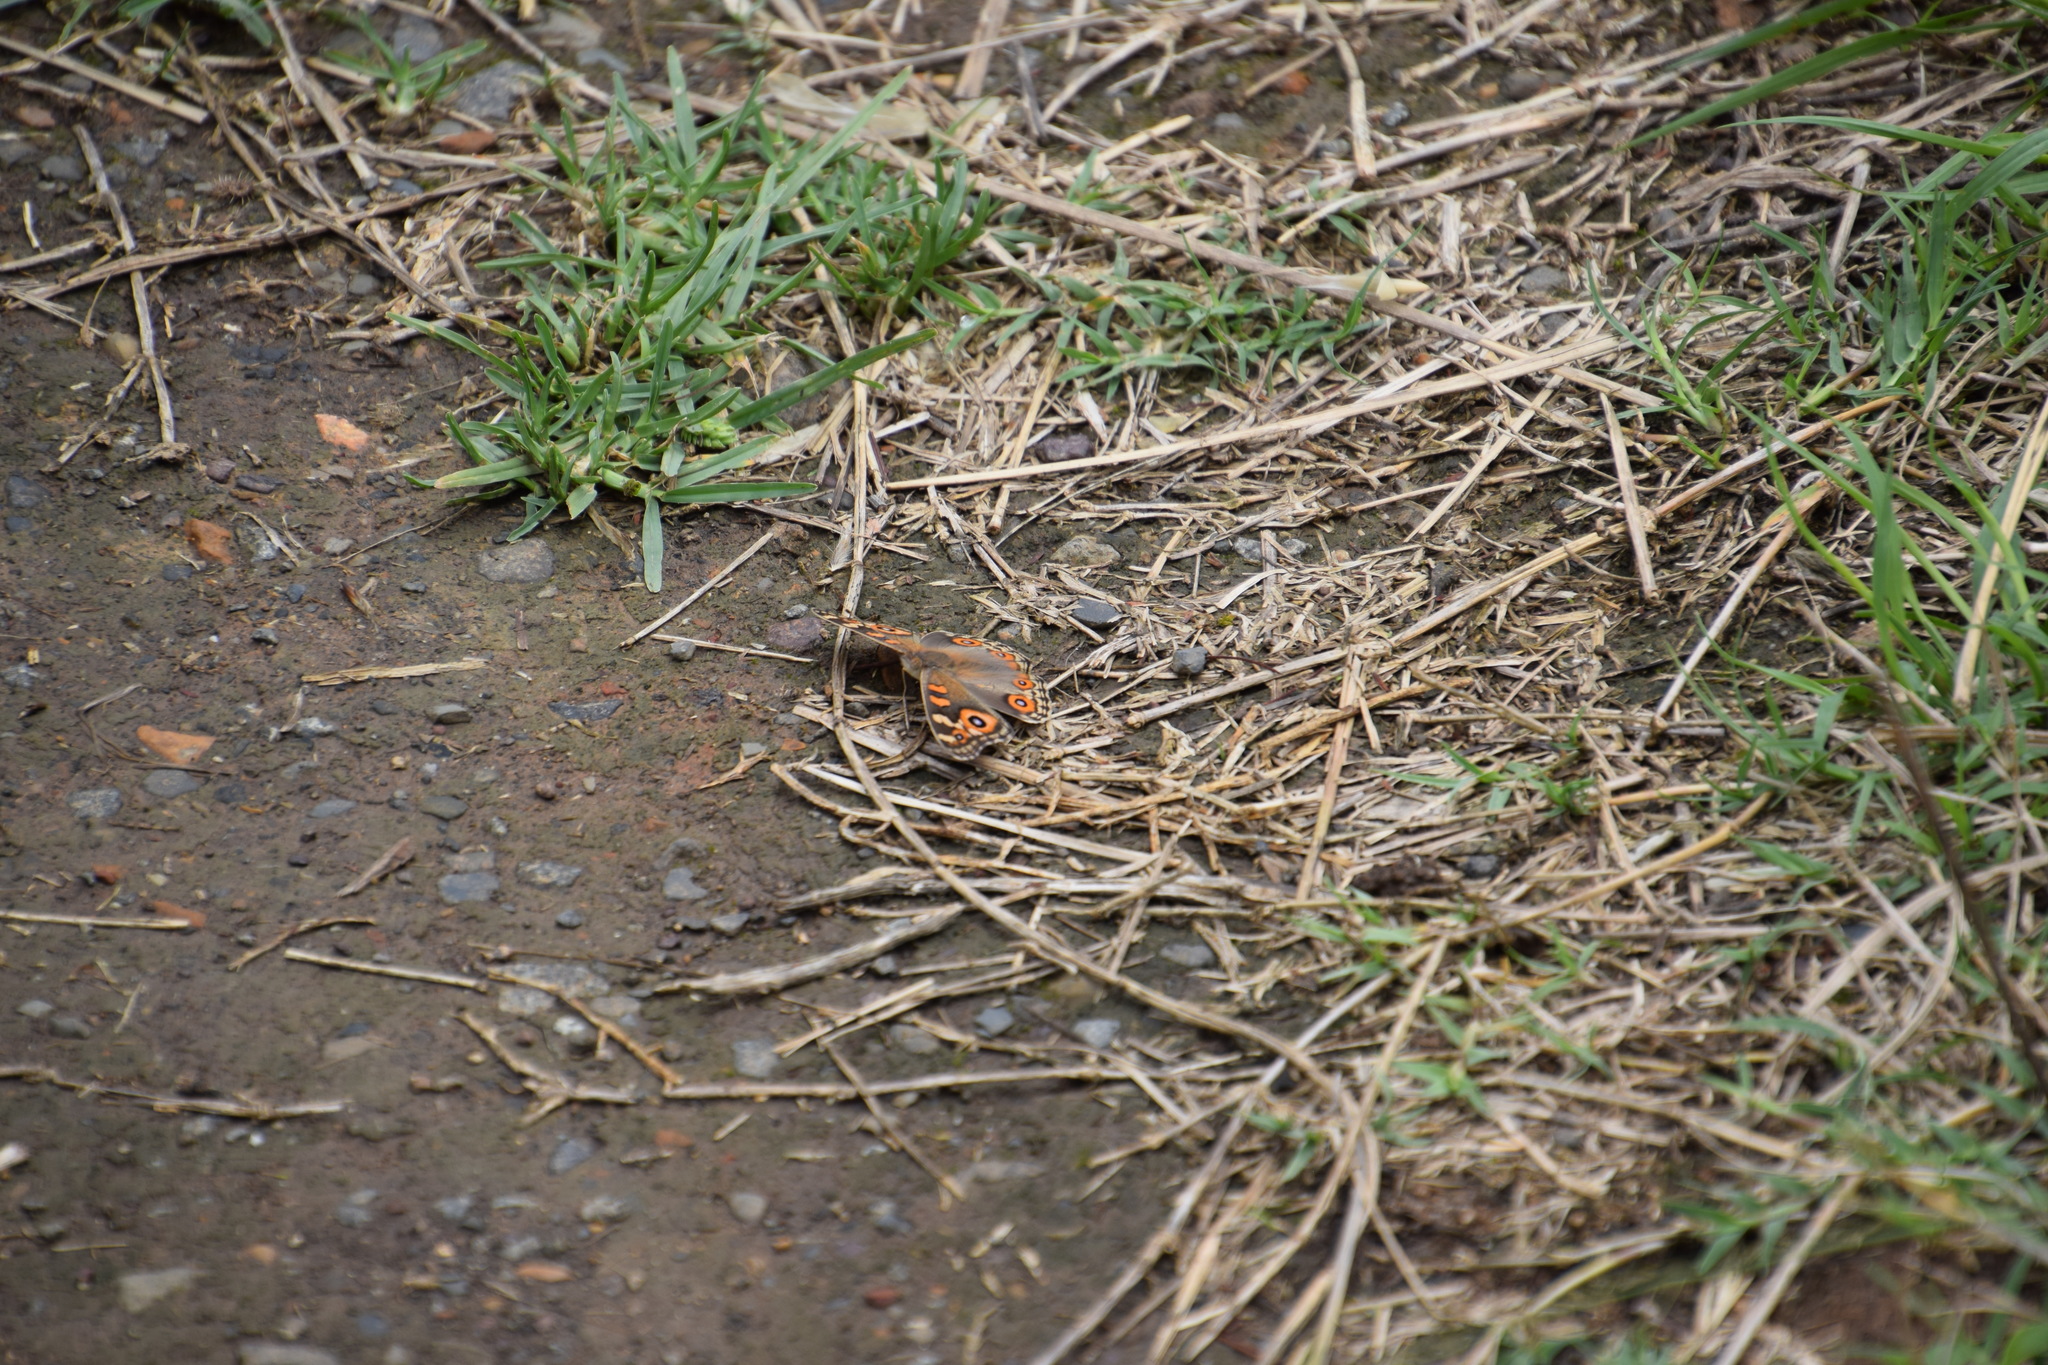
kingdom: Animalia
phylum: Arthropoda
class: Insecta
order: Lepidoptera
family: Nymphalidae
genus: Junonia
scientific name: Junonia villida
